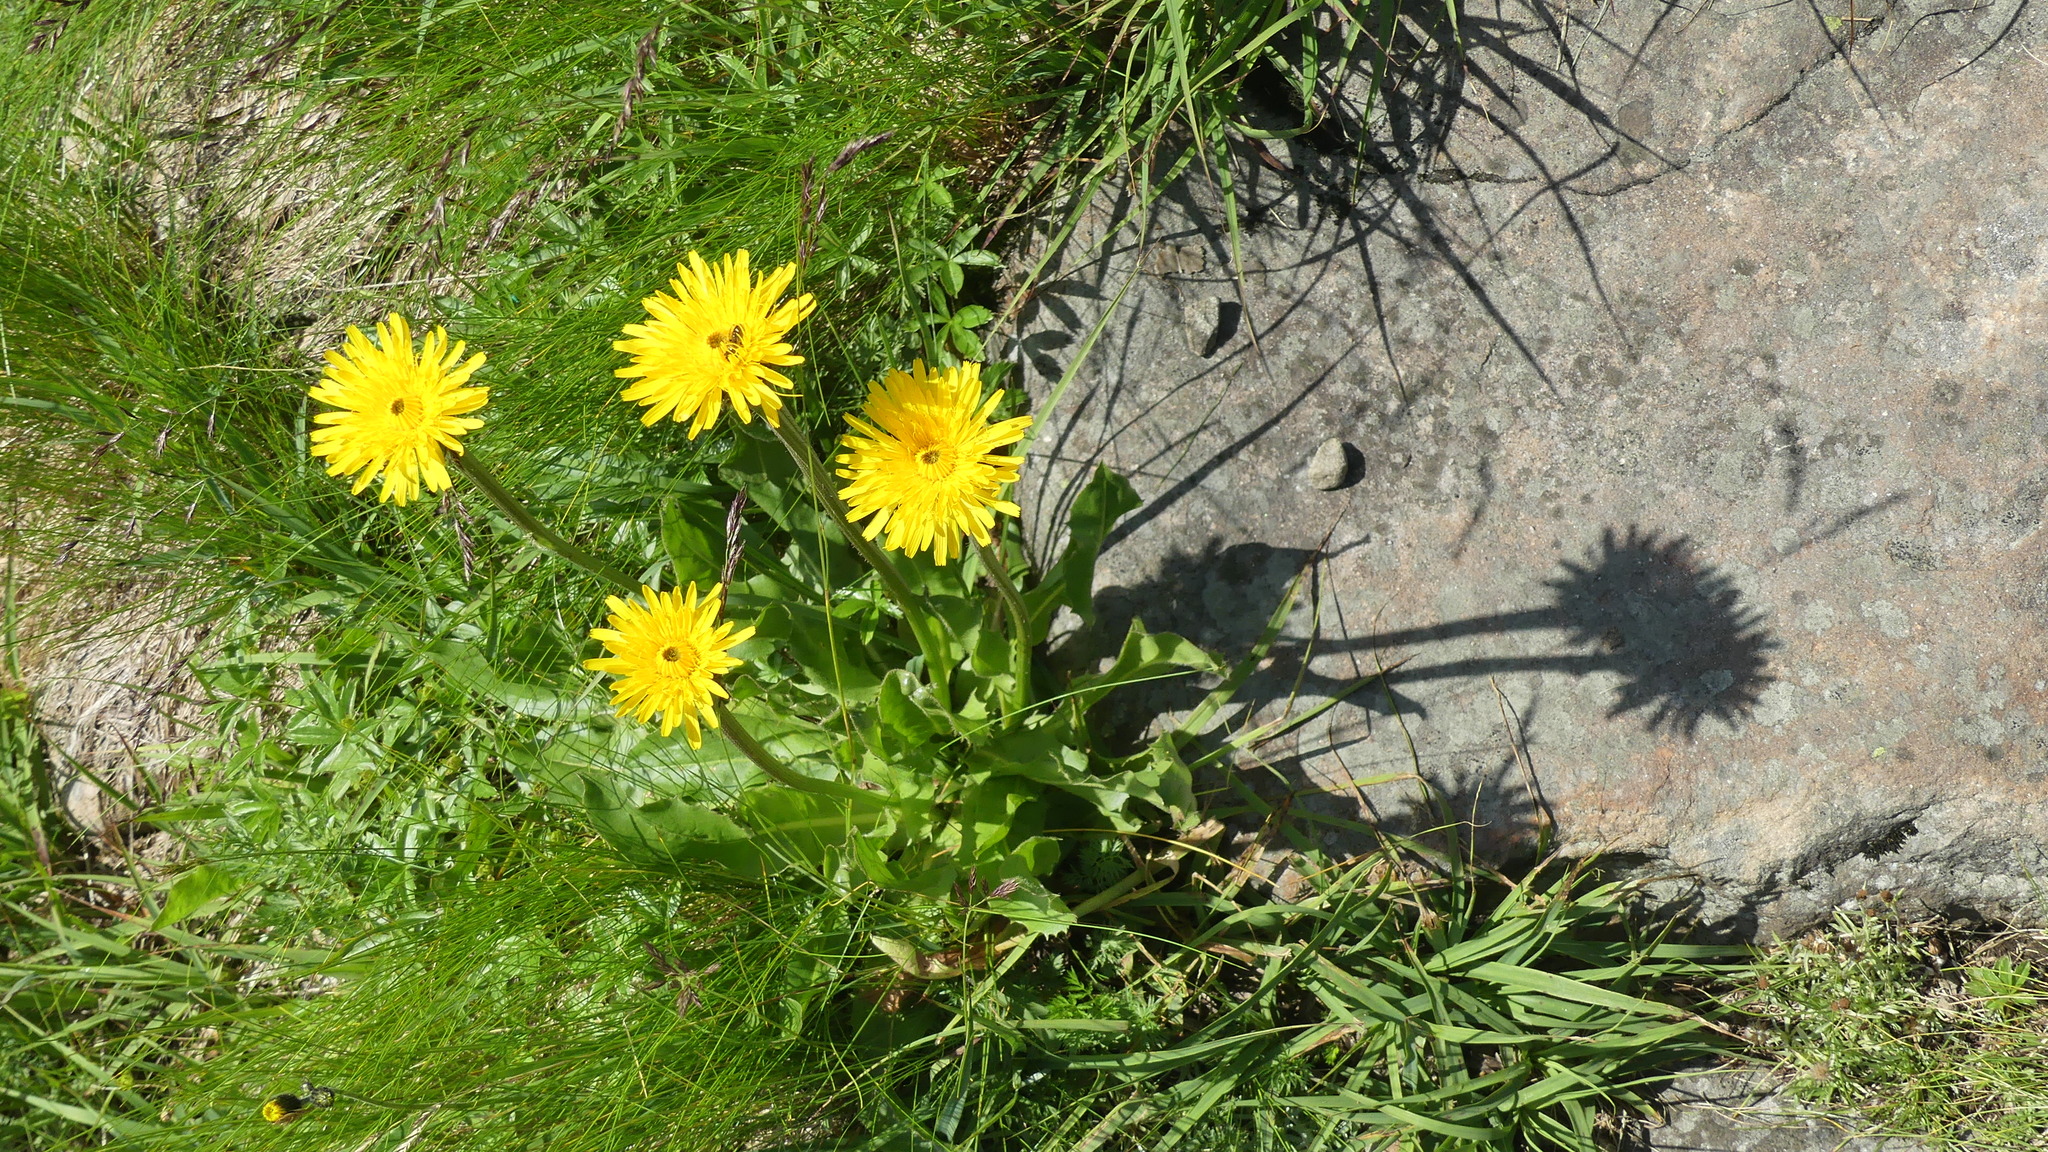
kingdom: Plantae
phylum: Tracheophyta
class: Magnoliopsida
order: Asterales
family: Asteraceae
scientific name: Asteraceae
